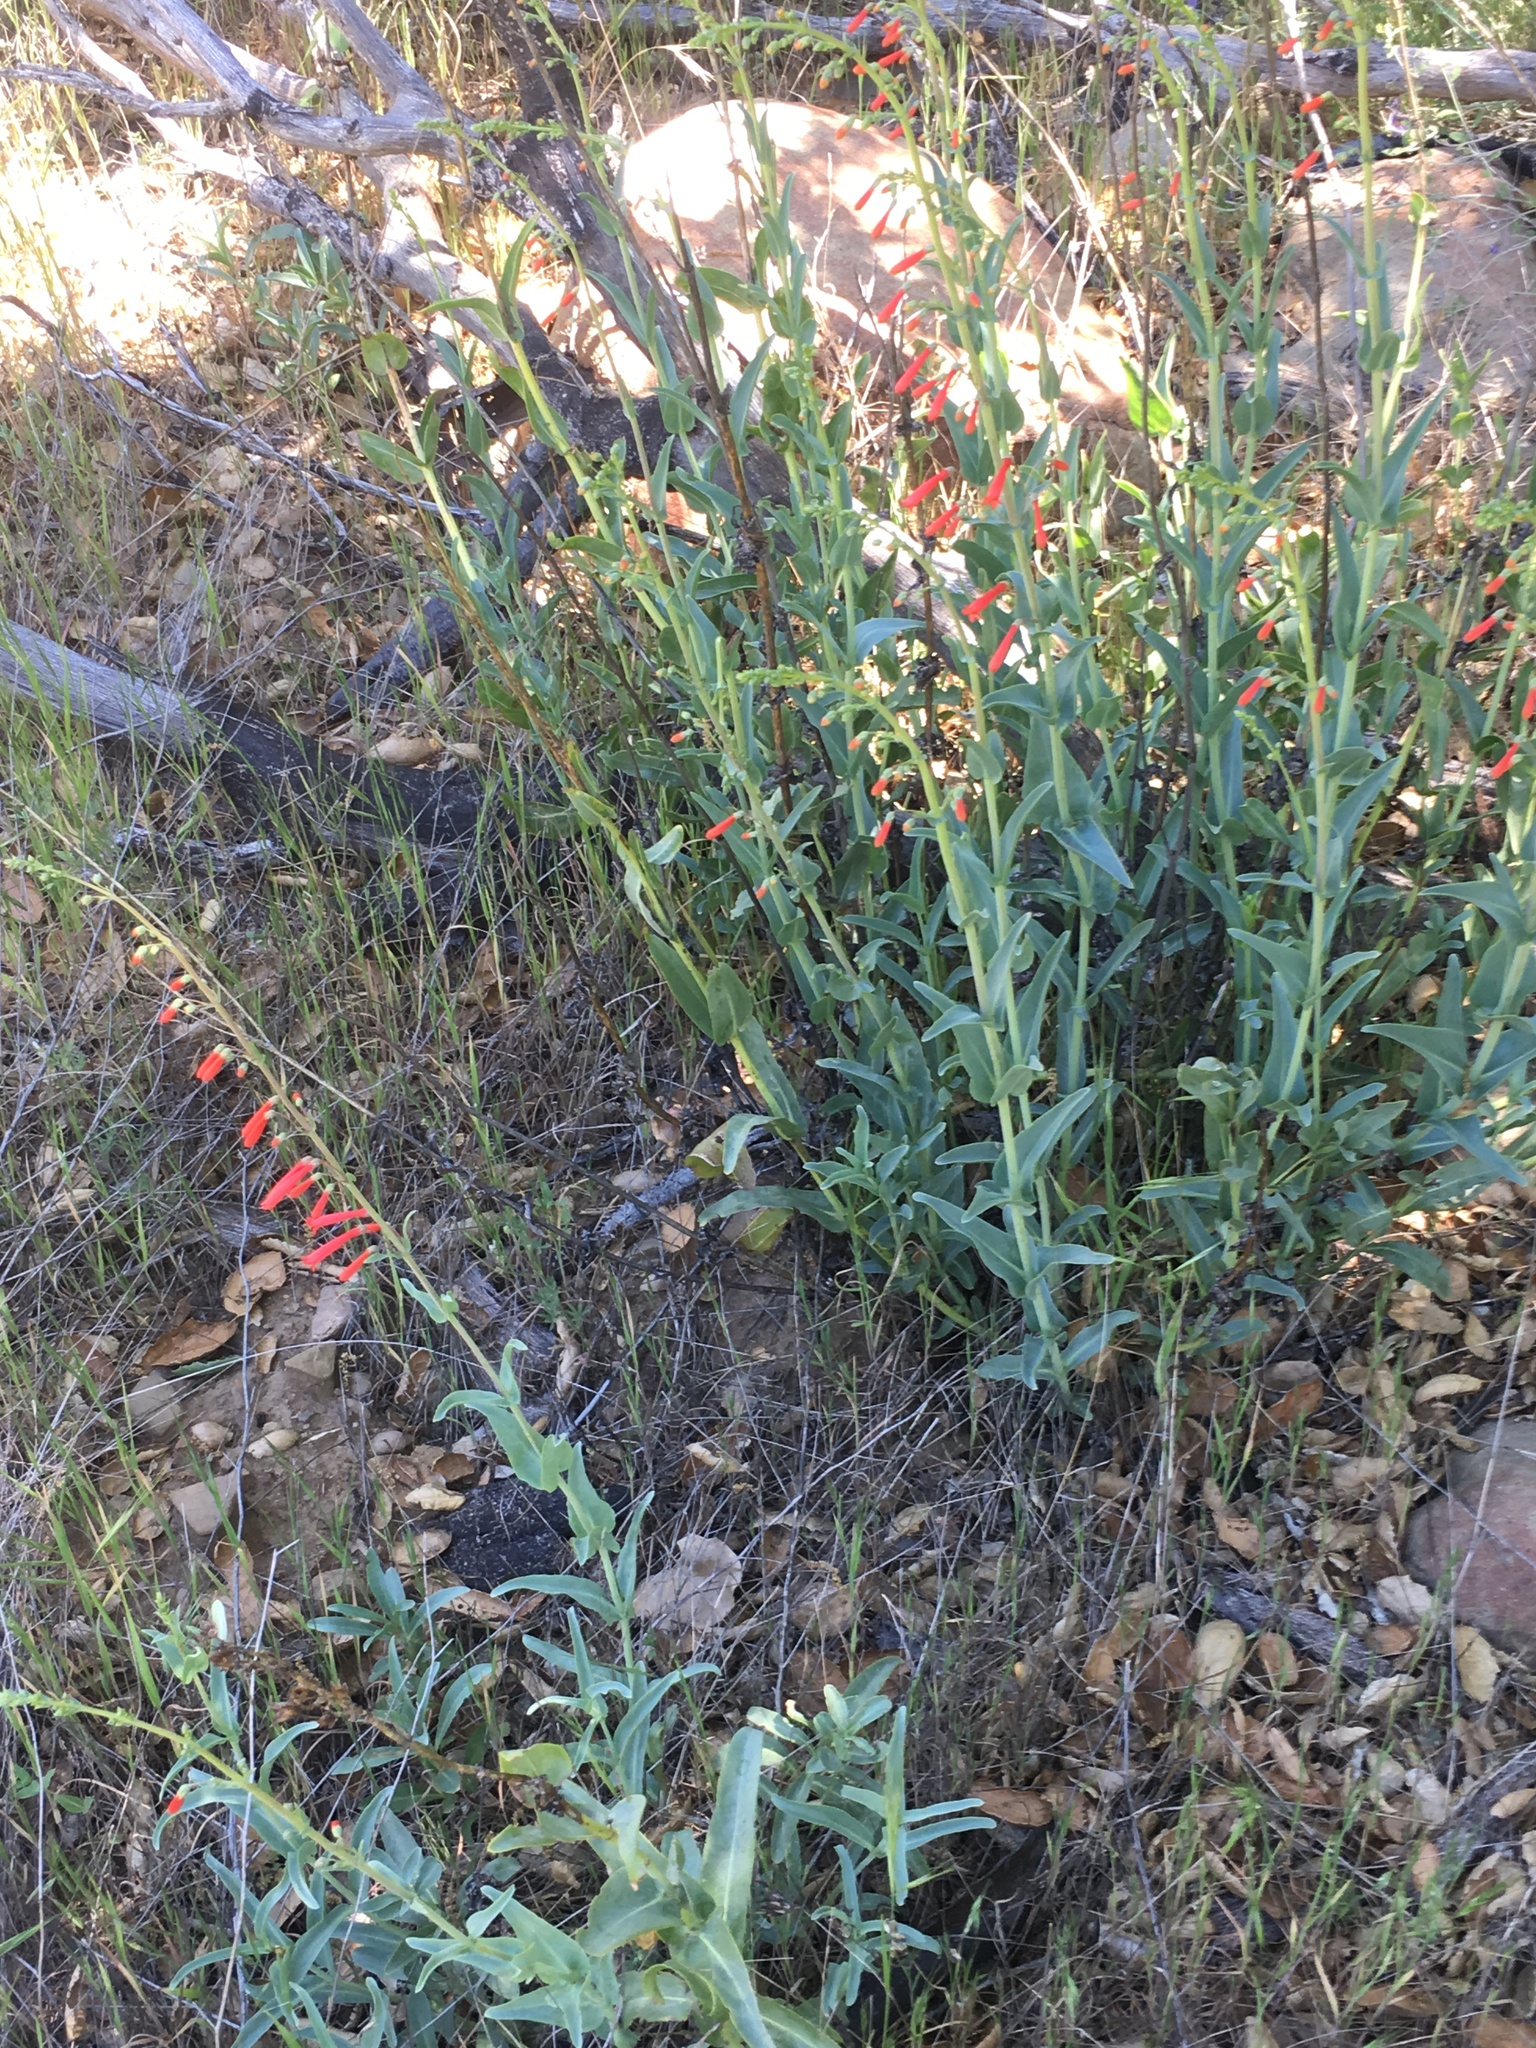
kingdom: Plantae
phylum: Tracheophyta
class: Magnoliopsida
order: Lamiales
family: Plantaginaceae
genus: Penstemon
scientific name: Penstemon centranthifolius
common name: Scarlet bugler
